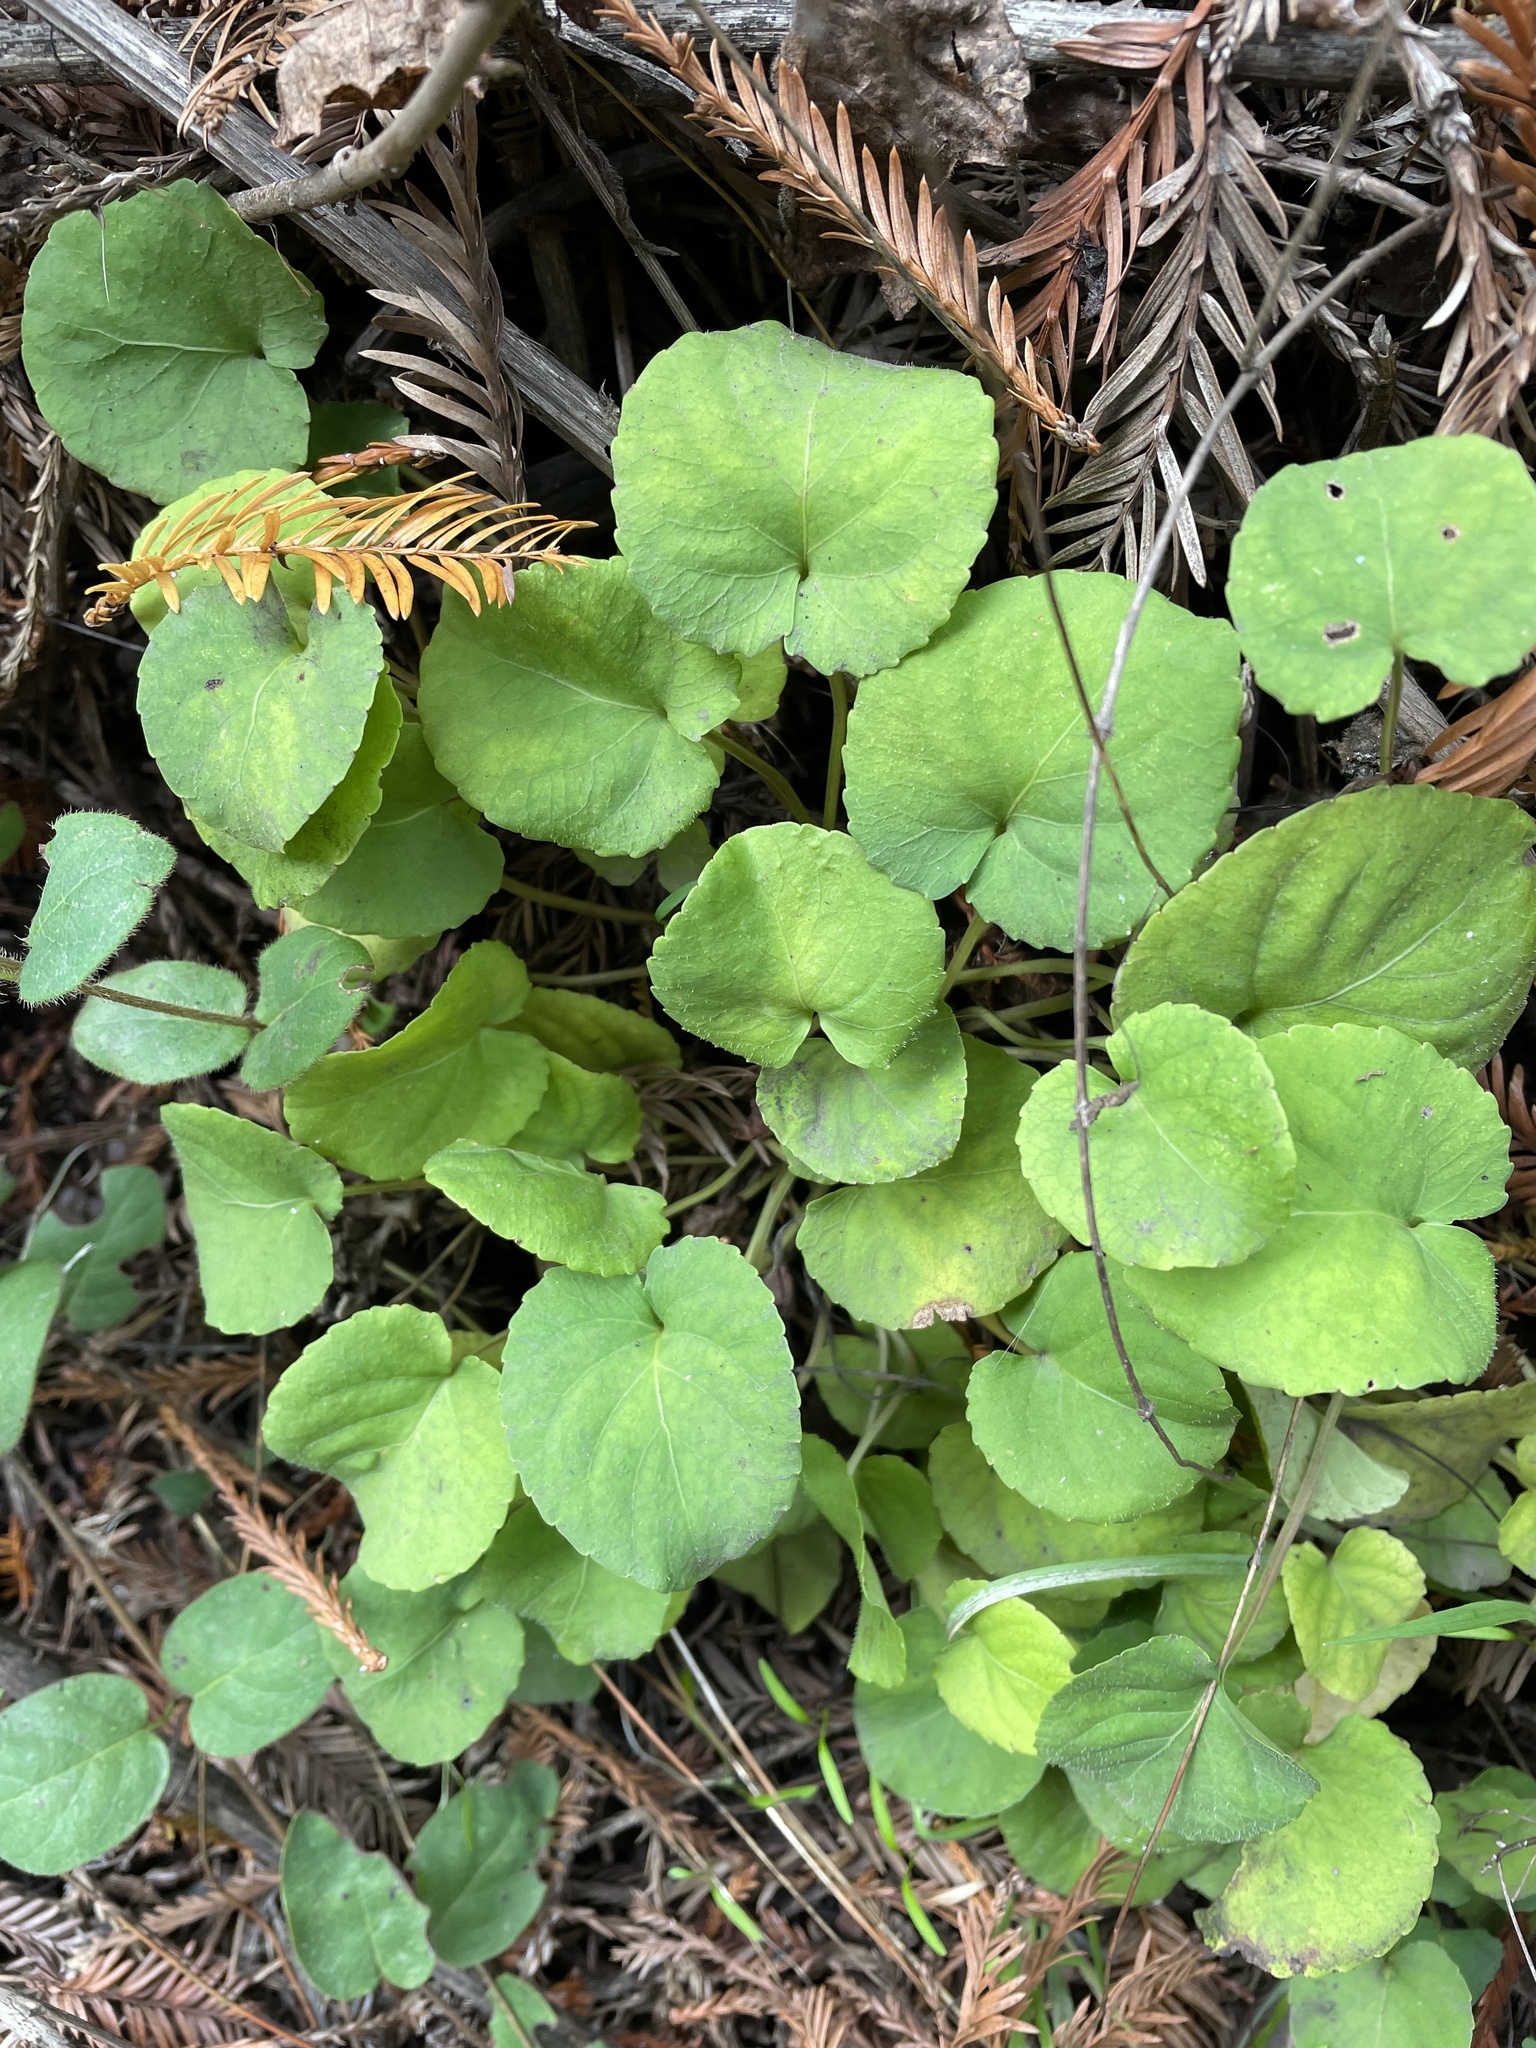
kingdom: Plantae
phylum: Tracheophyta
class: Magnoliopsida
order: Malpighiales
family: Violaceae
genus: Viola
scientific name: Viola sempervirens
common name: Evergreen violet
